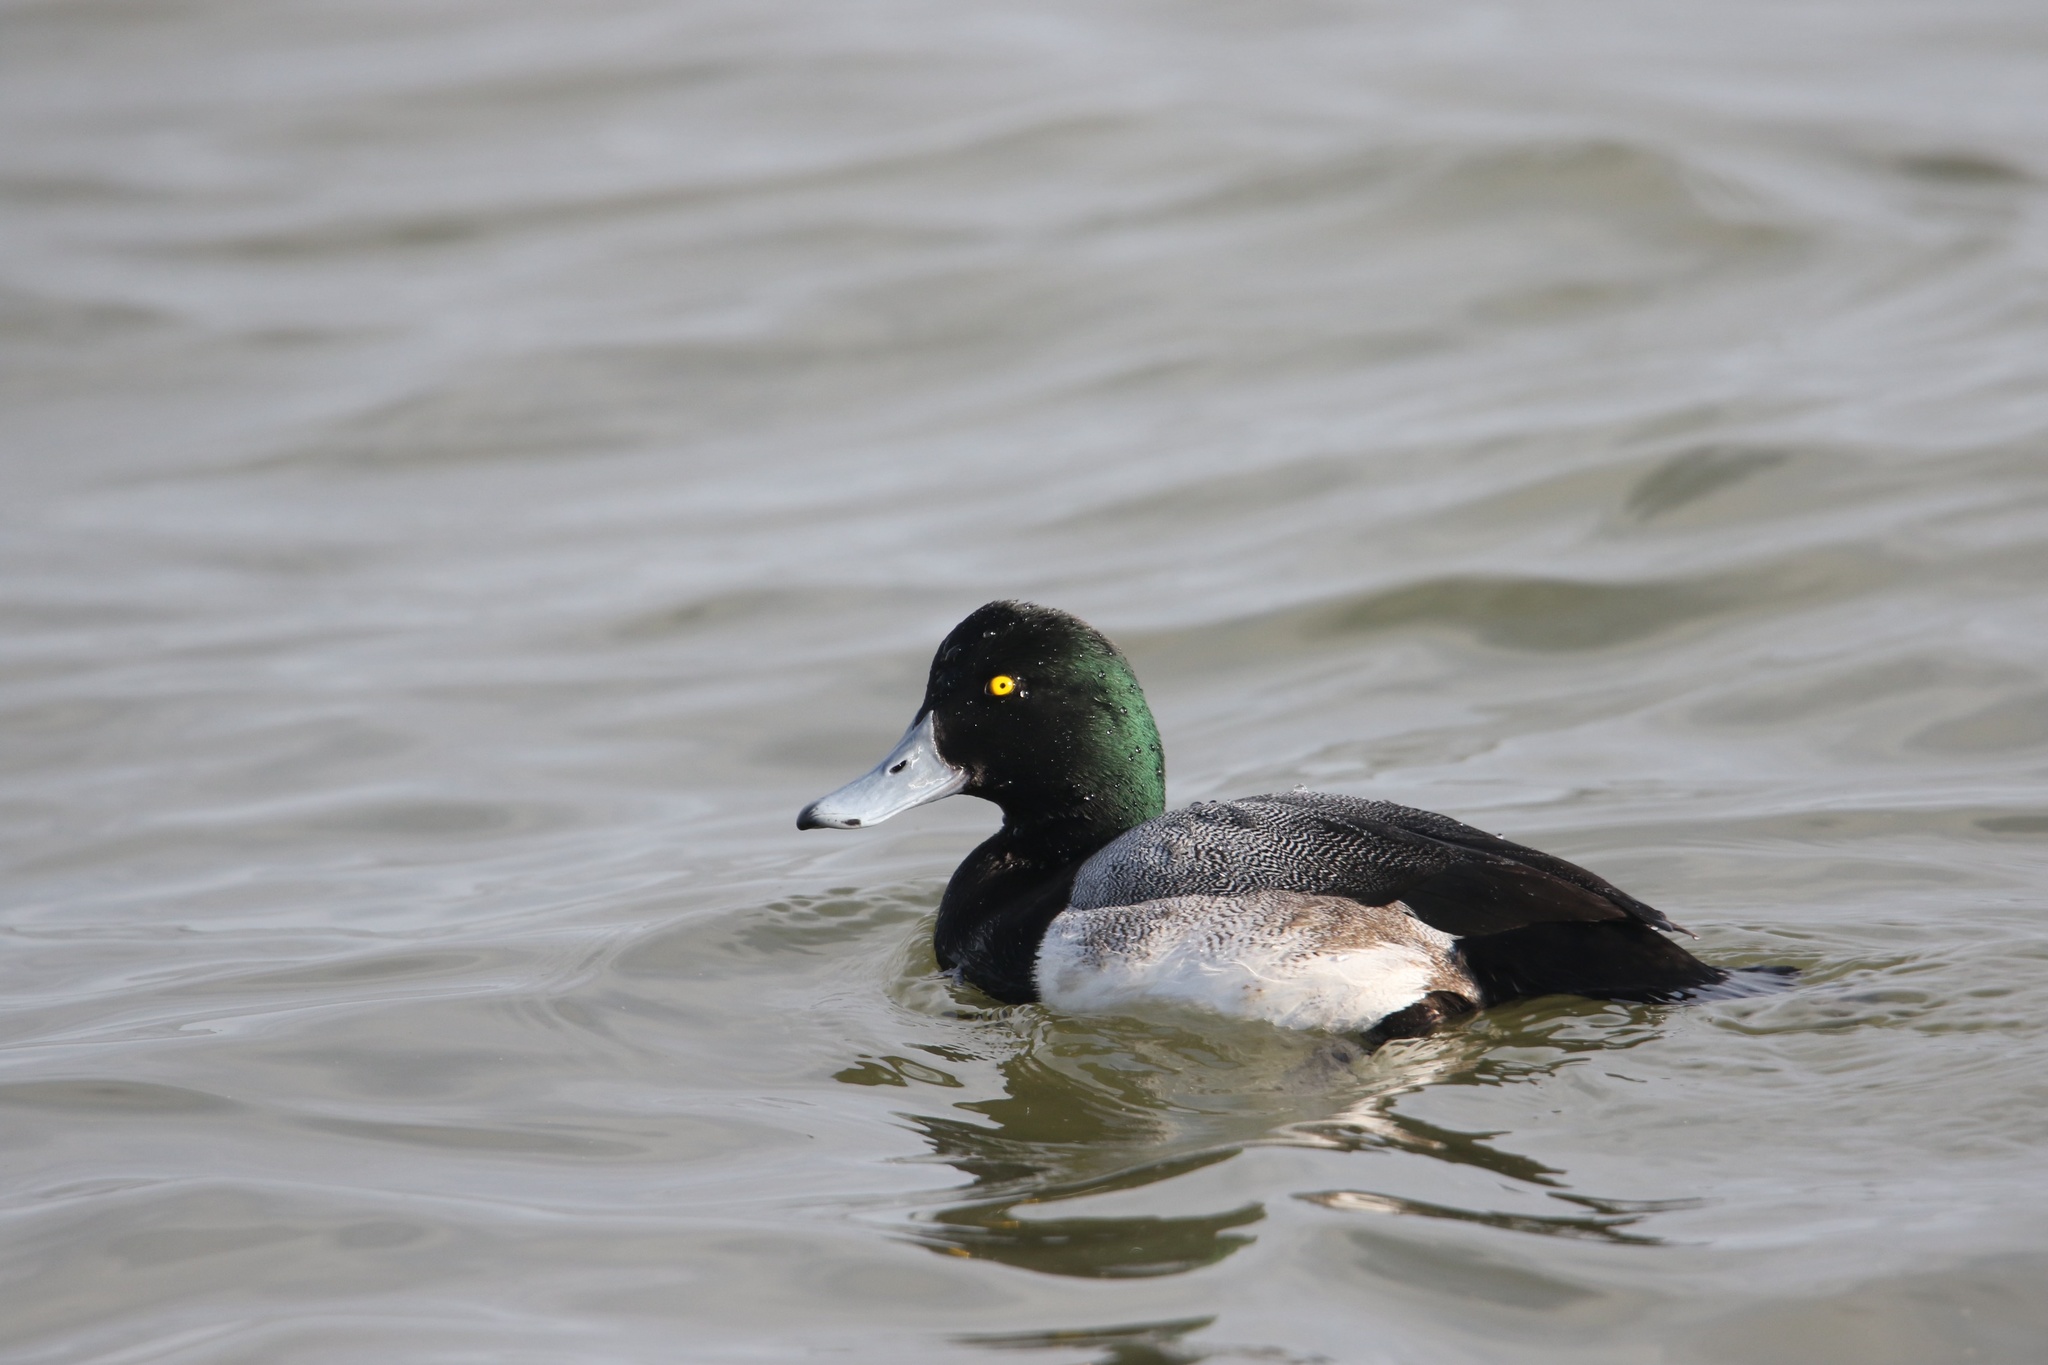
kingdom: Animalia
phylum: Chordata
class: Aves
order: Anseriformes
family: Anatidae
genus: Aythya
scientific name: Aythya marila
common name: Greater scaup
